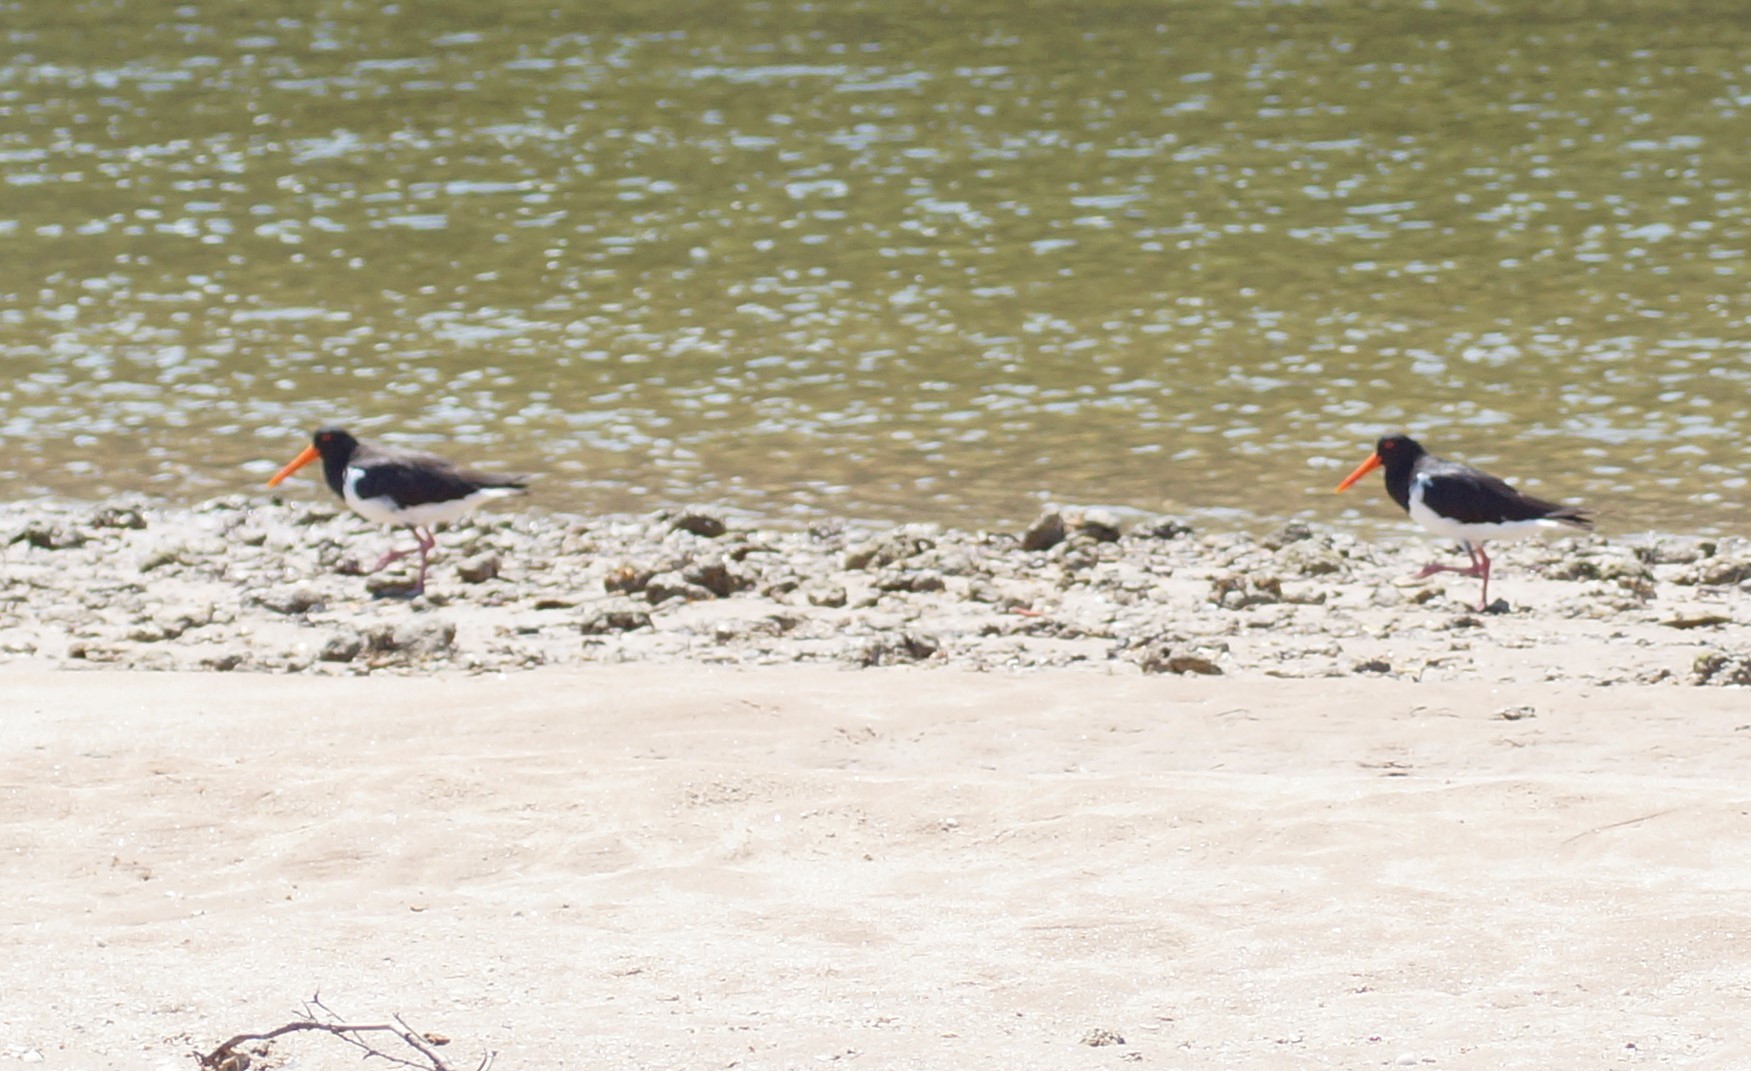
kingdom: Animalia
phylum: Chordata
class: Aves
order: Charadriiformes
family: Haematopodidae
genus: Haematopus
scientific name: Haematopus longirostris
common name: Pied oystercatcher
